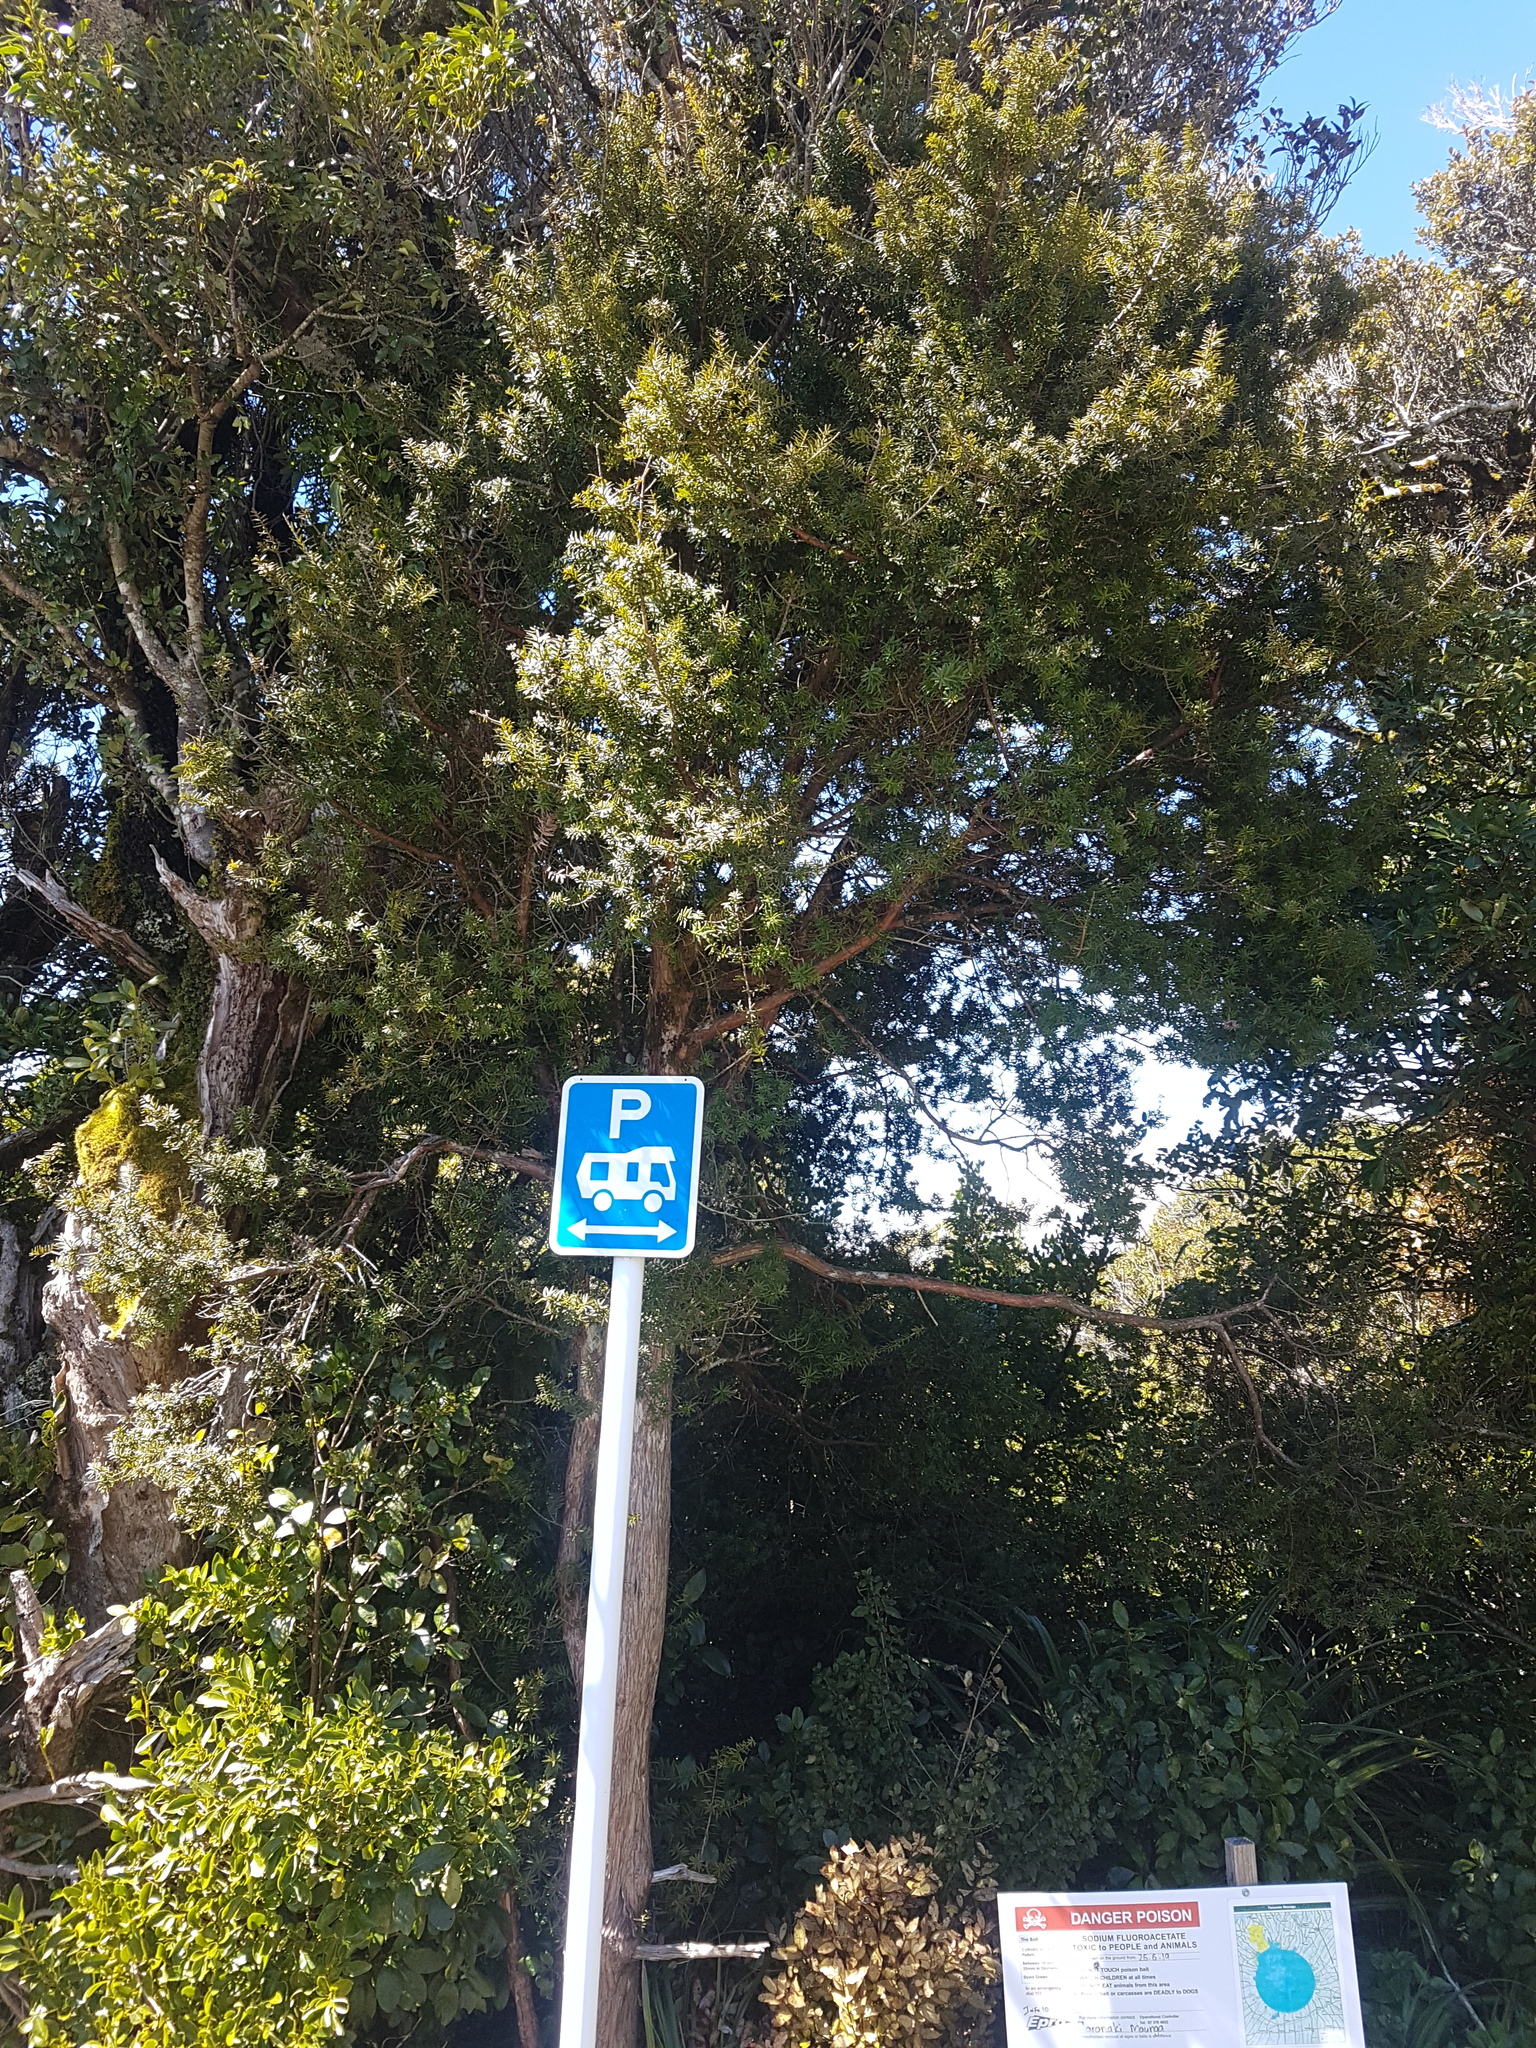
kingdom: Plantae
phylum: Tracheophyta
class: Pinopsida
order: Pinales
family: Podocarpaceae
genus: Podocarpus
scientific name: Podocarpus laetus
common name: Hall's totara
